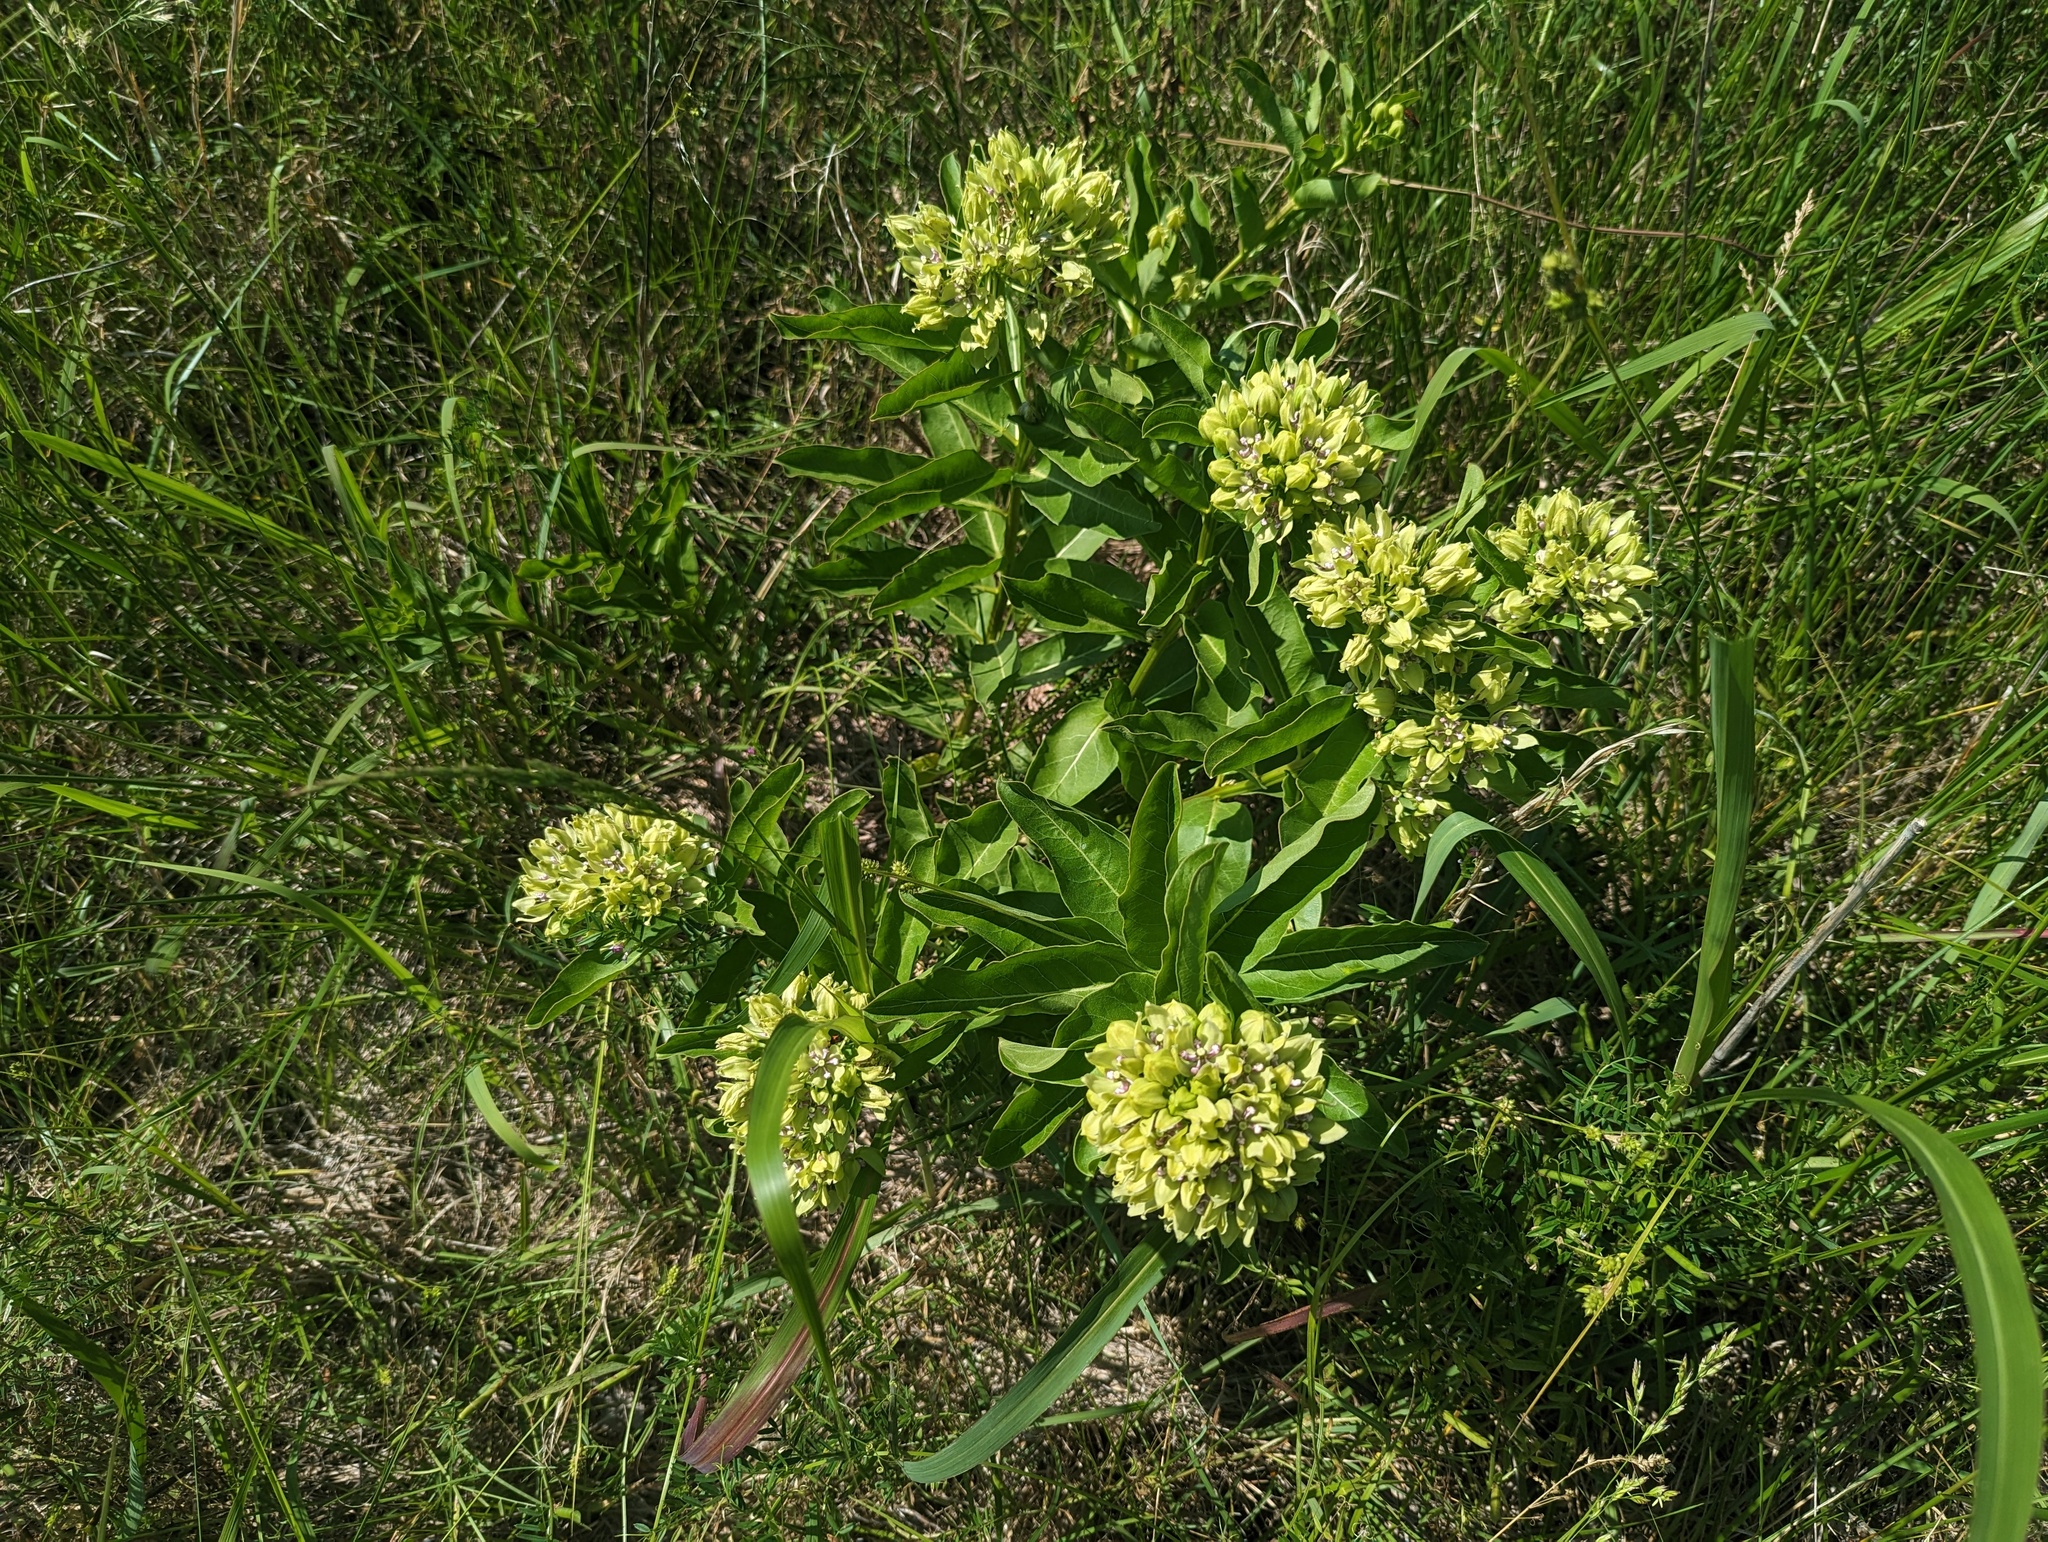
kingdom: Plantae
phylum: Tracheophyta
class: Magnoliopsida
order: Gentianales
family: Apocynaceae
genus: Asclepias
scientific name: Asclepias viridis
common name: Antelope-horns
